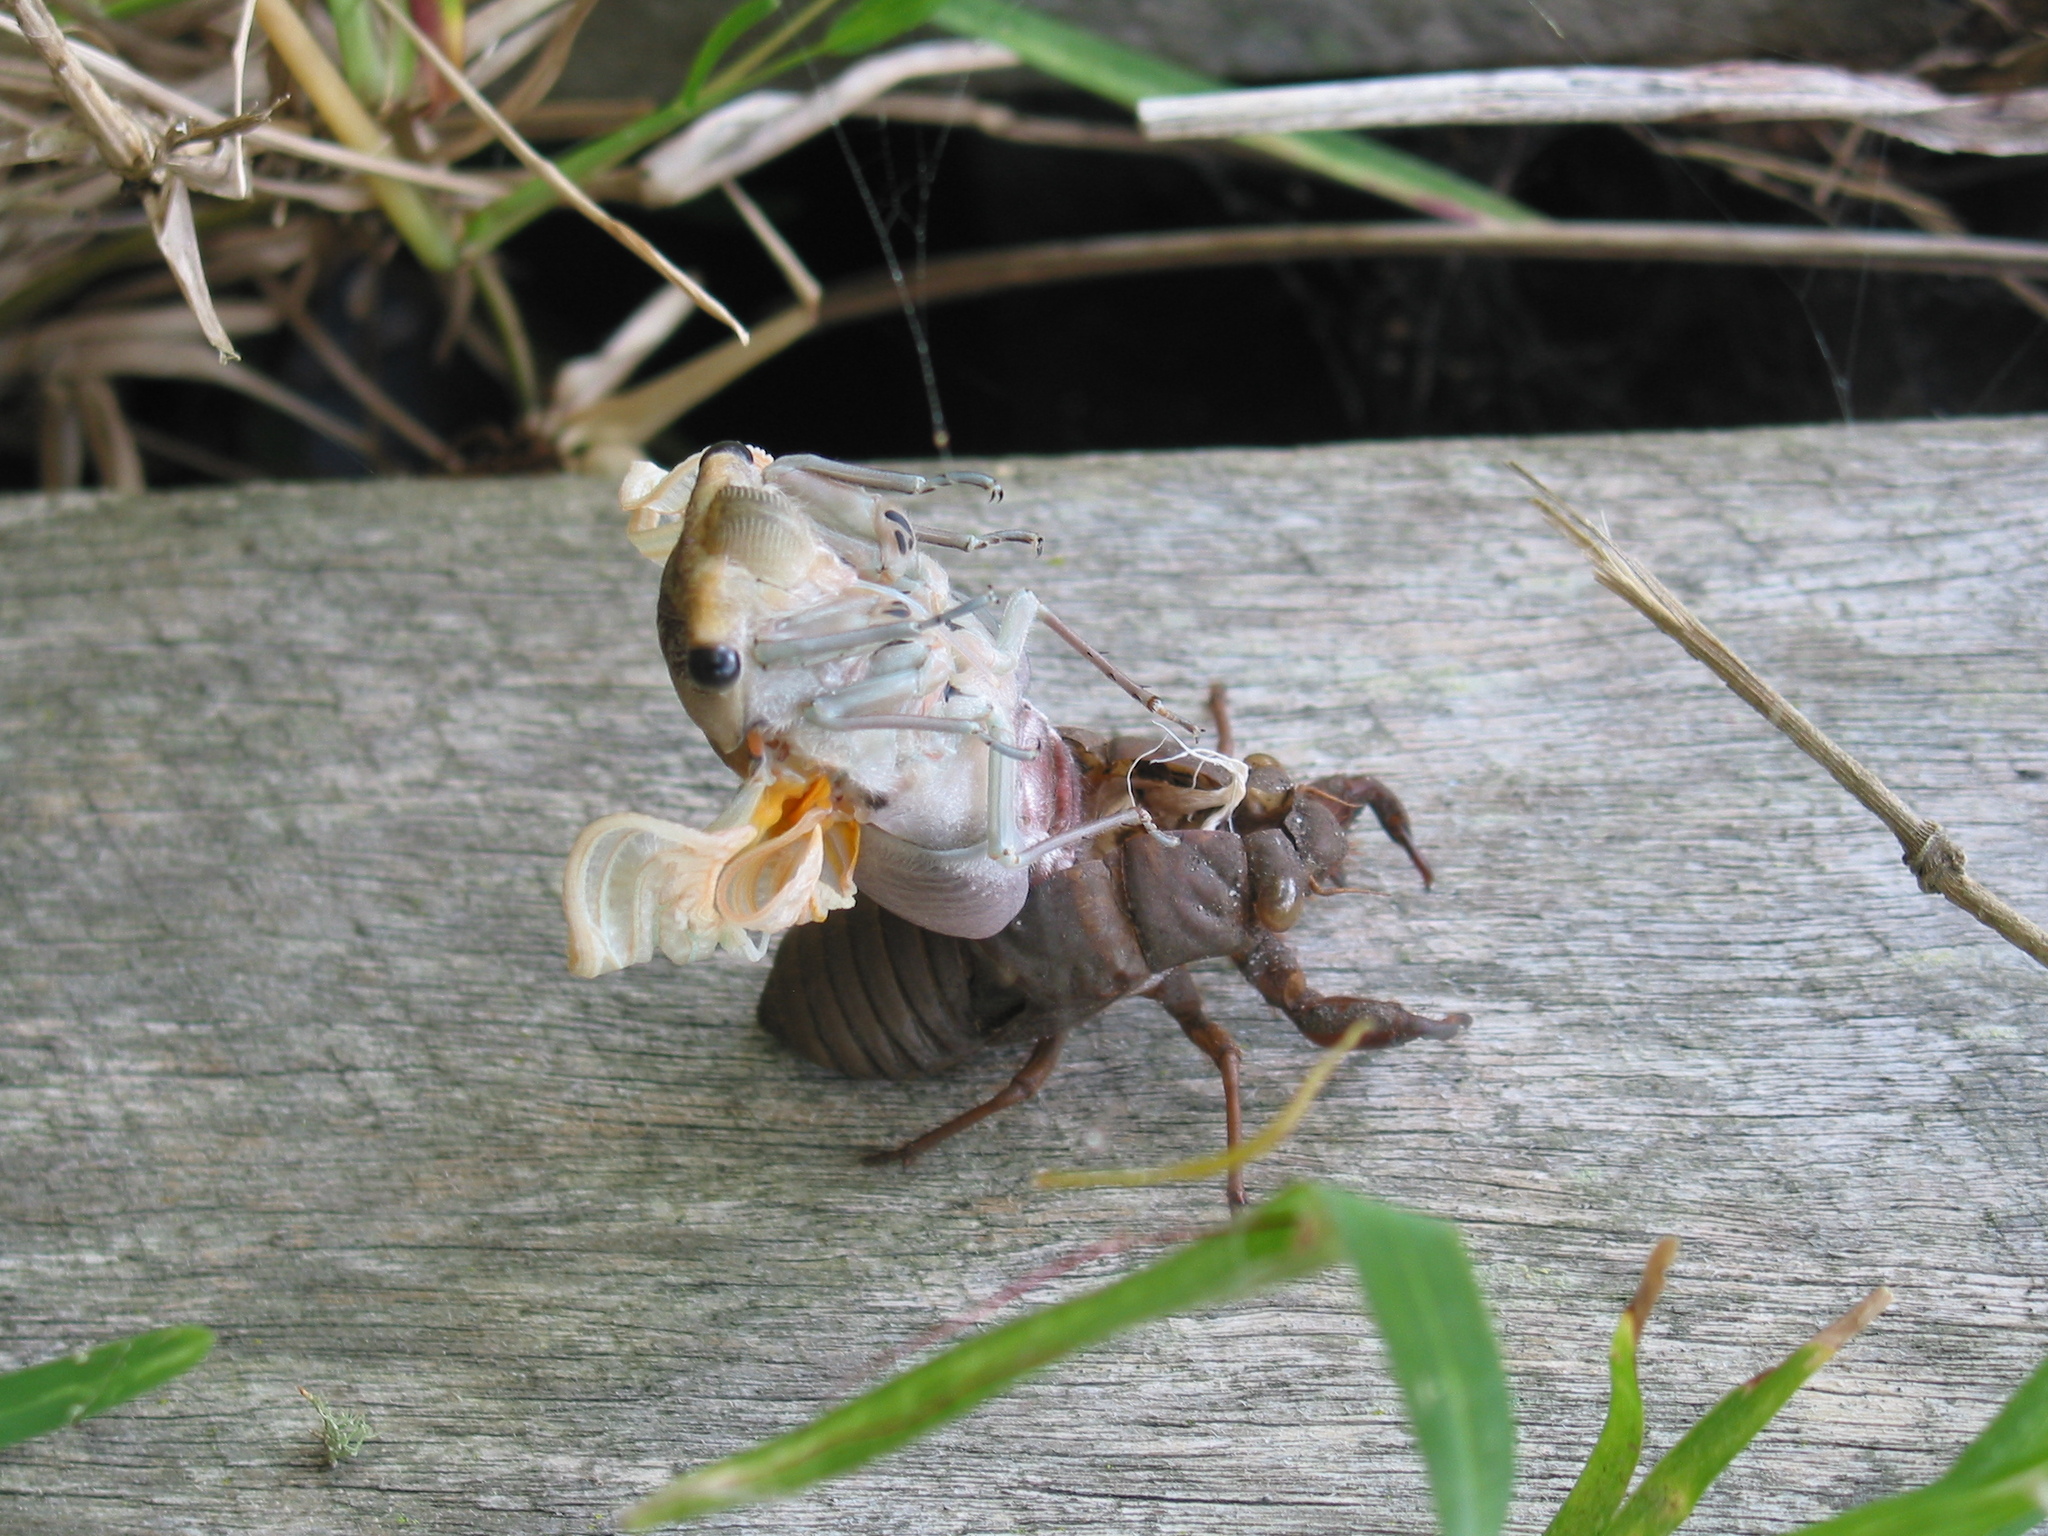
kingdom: Animalia
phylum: Arthropoda
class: Insecta
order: Hemiptera
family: Cicadidae
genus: Thopha
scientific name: Thopha saccata
